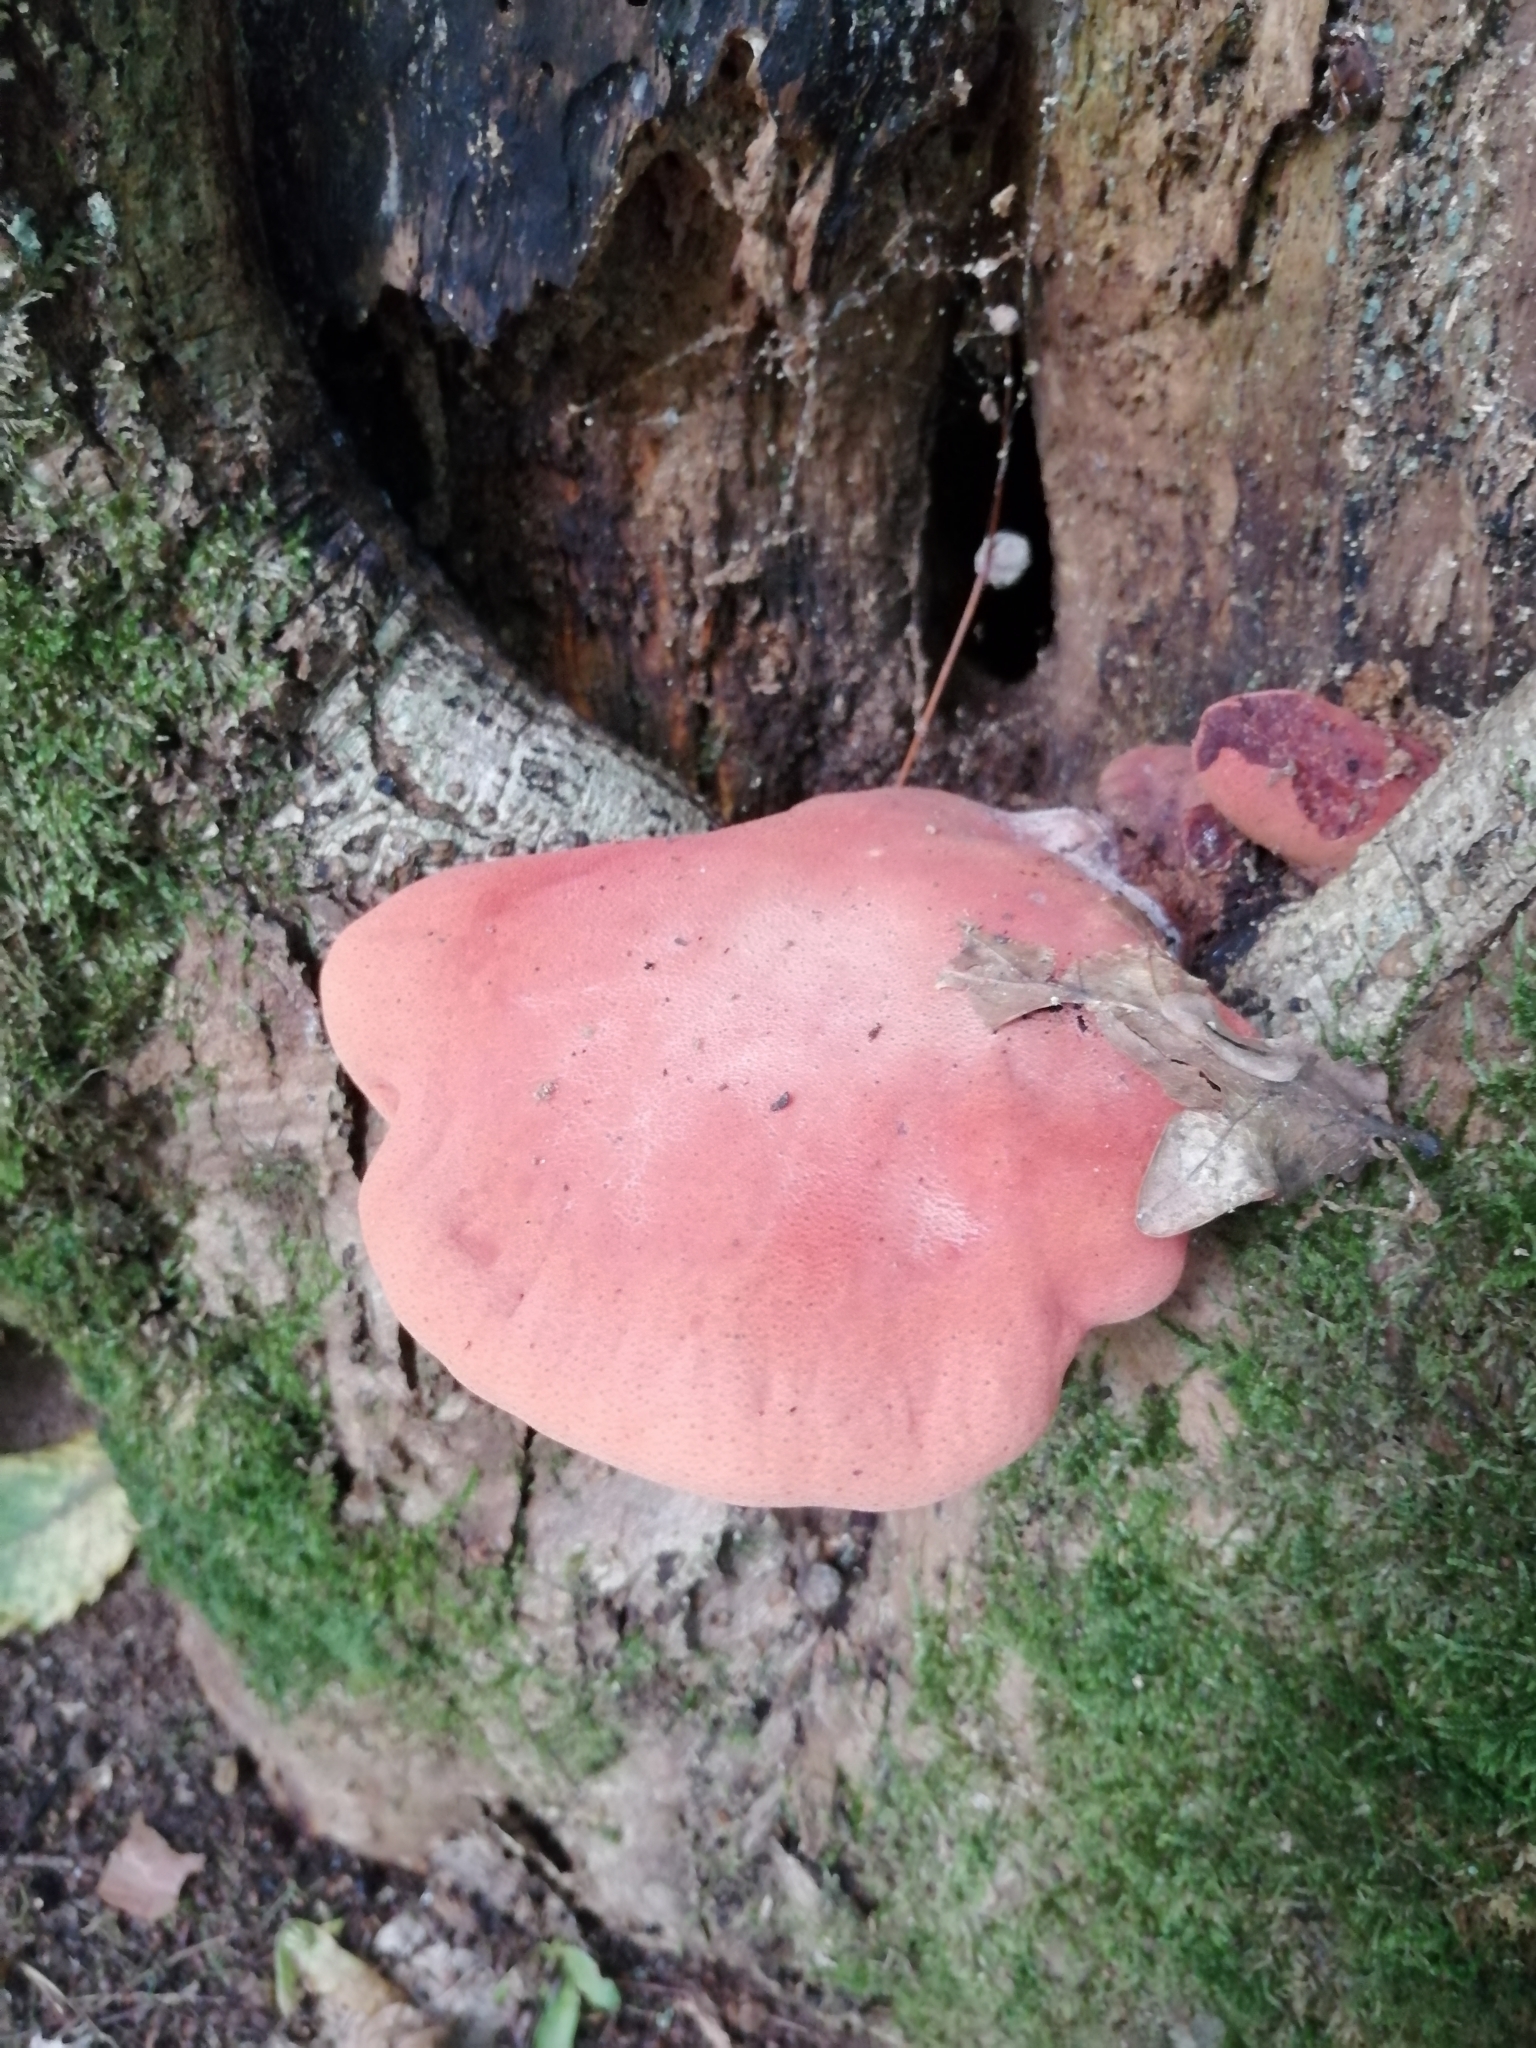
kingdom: Fungi
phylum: Basidiomycota
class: Agaricomycetes
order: Agaricales
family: Fistulinaceae
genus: Fistulina
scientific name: Fistulina hepatica
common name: Beef-steak fungus
